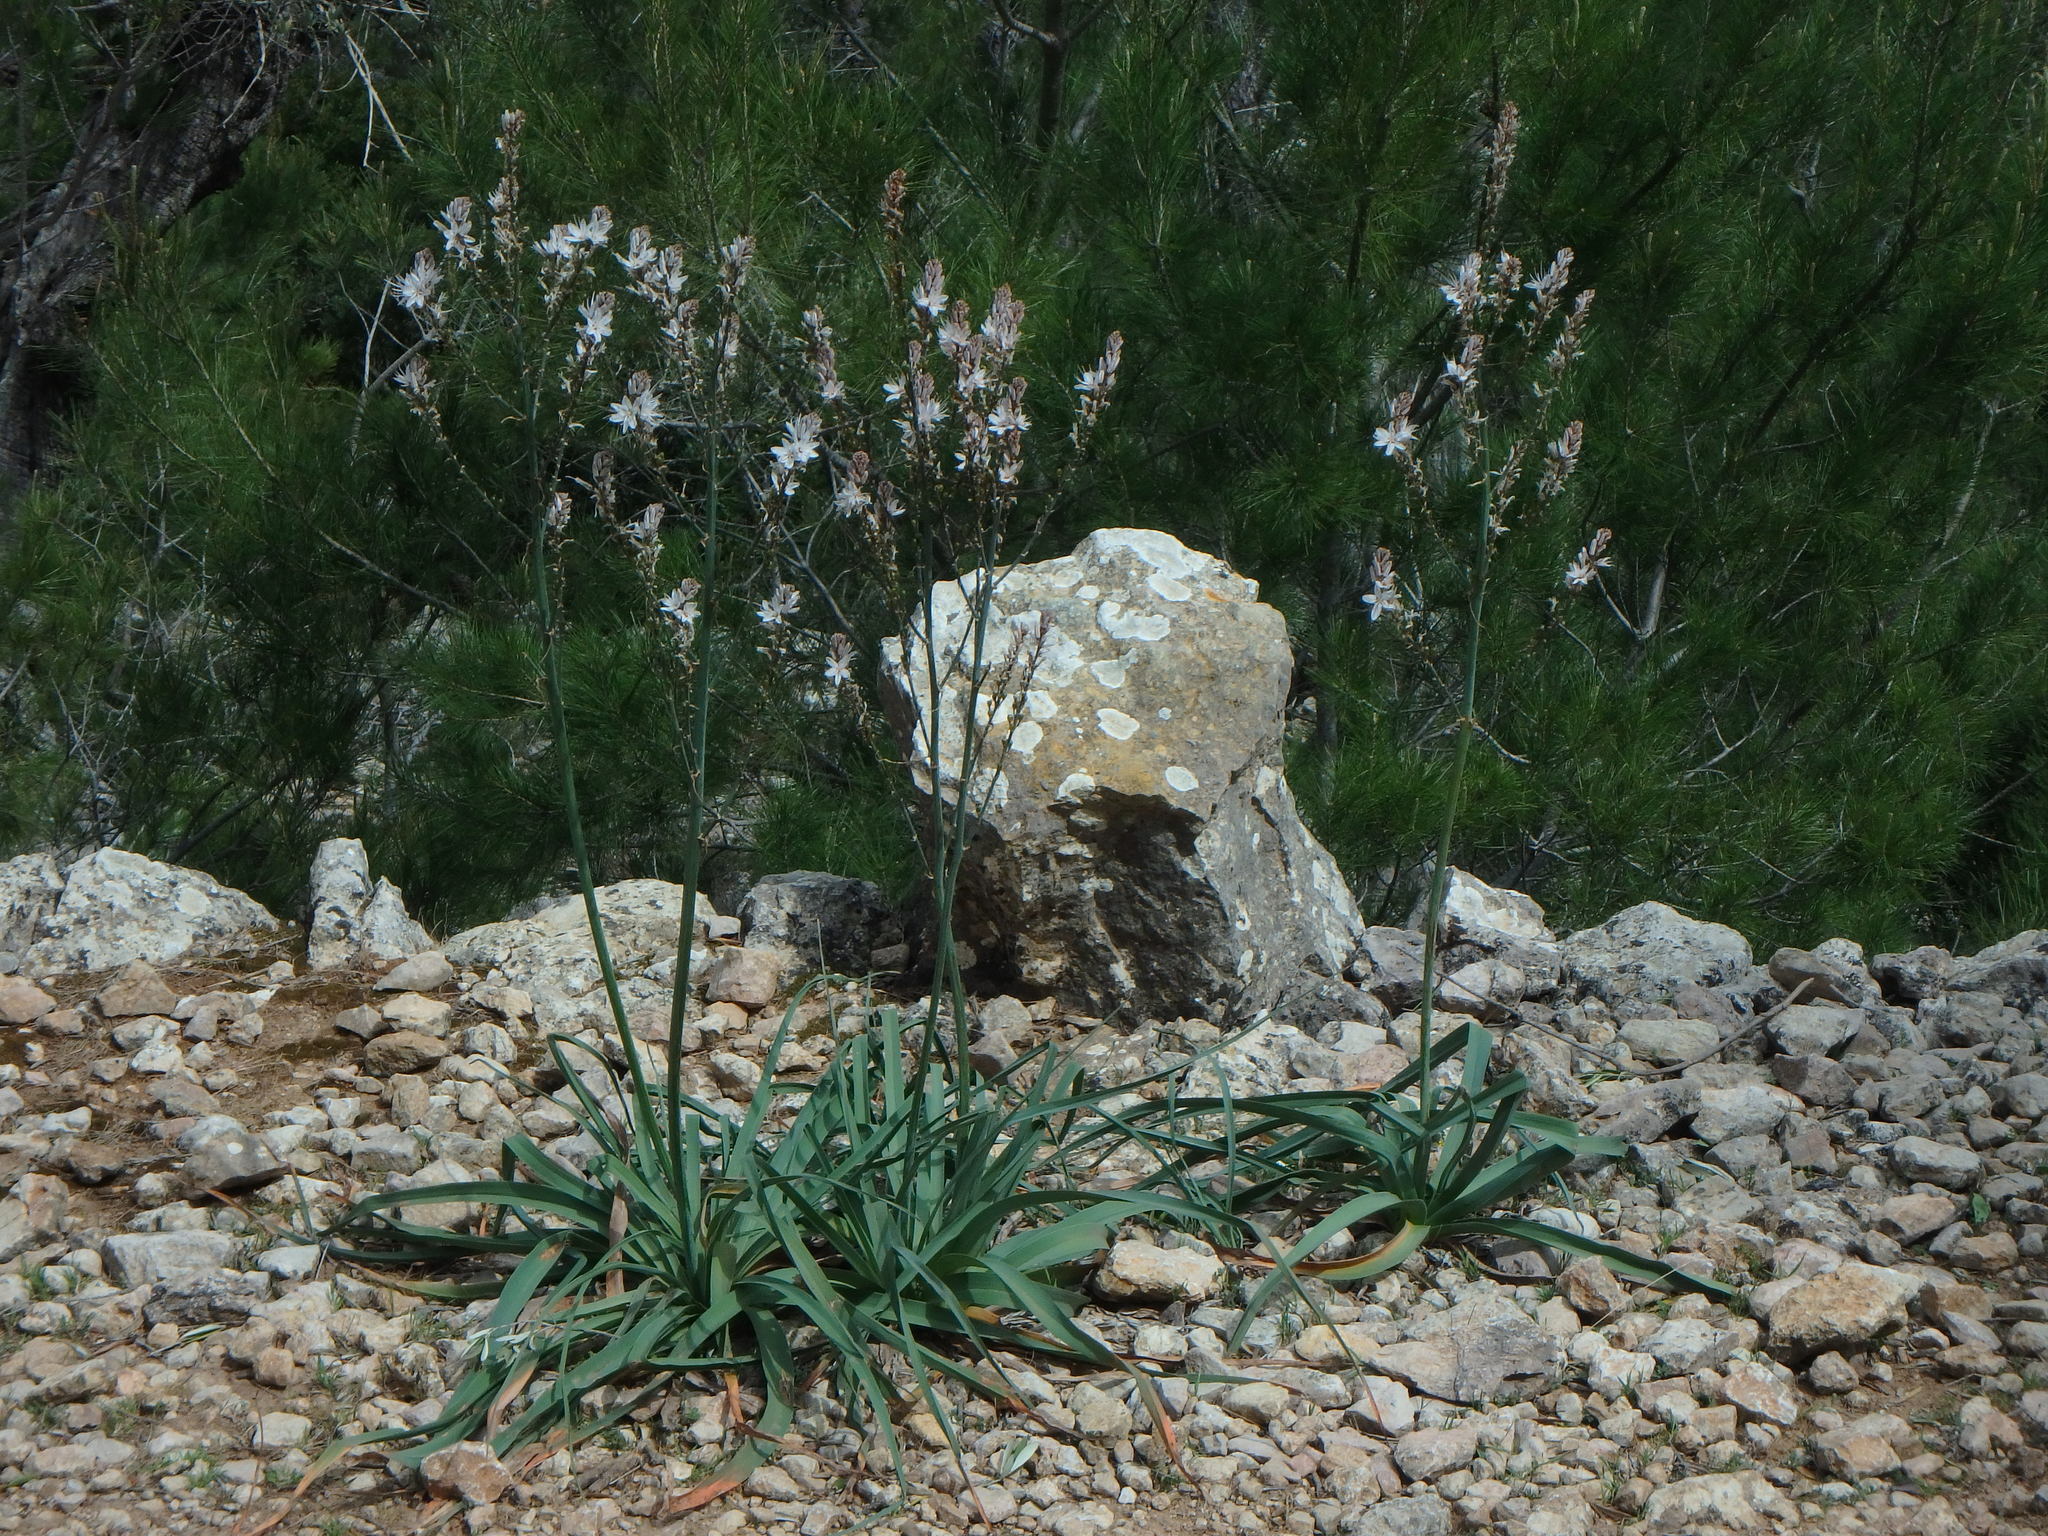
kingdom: Plantae
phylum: Tracheophyta
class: Liliopsida
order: Asparagales
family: Asphodelaceae
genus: Asphodelus
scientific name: Asphodelus aestivus
